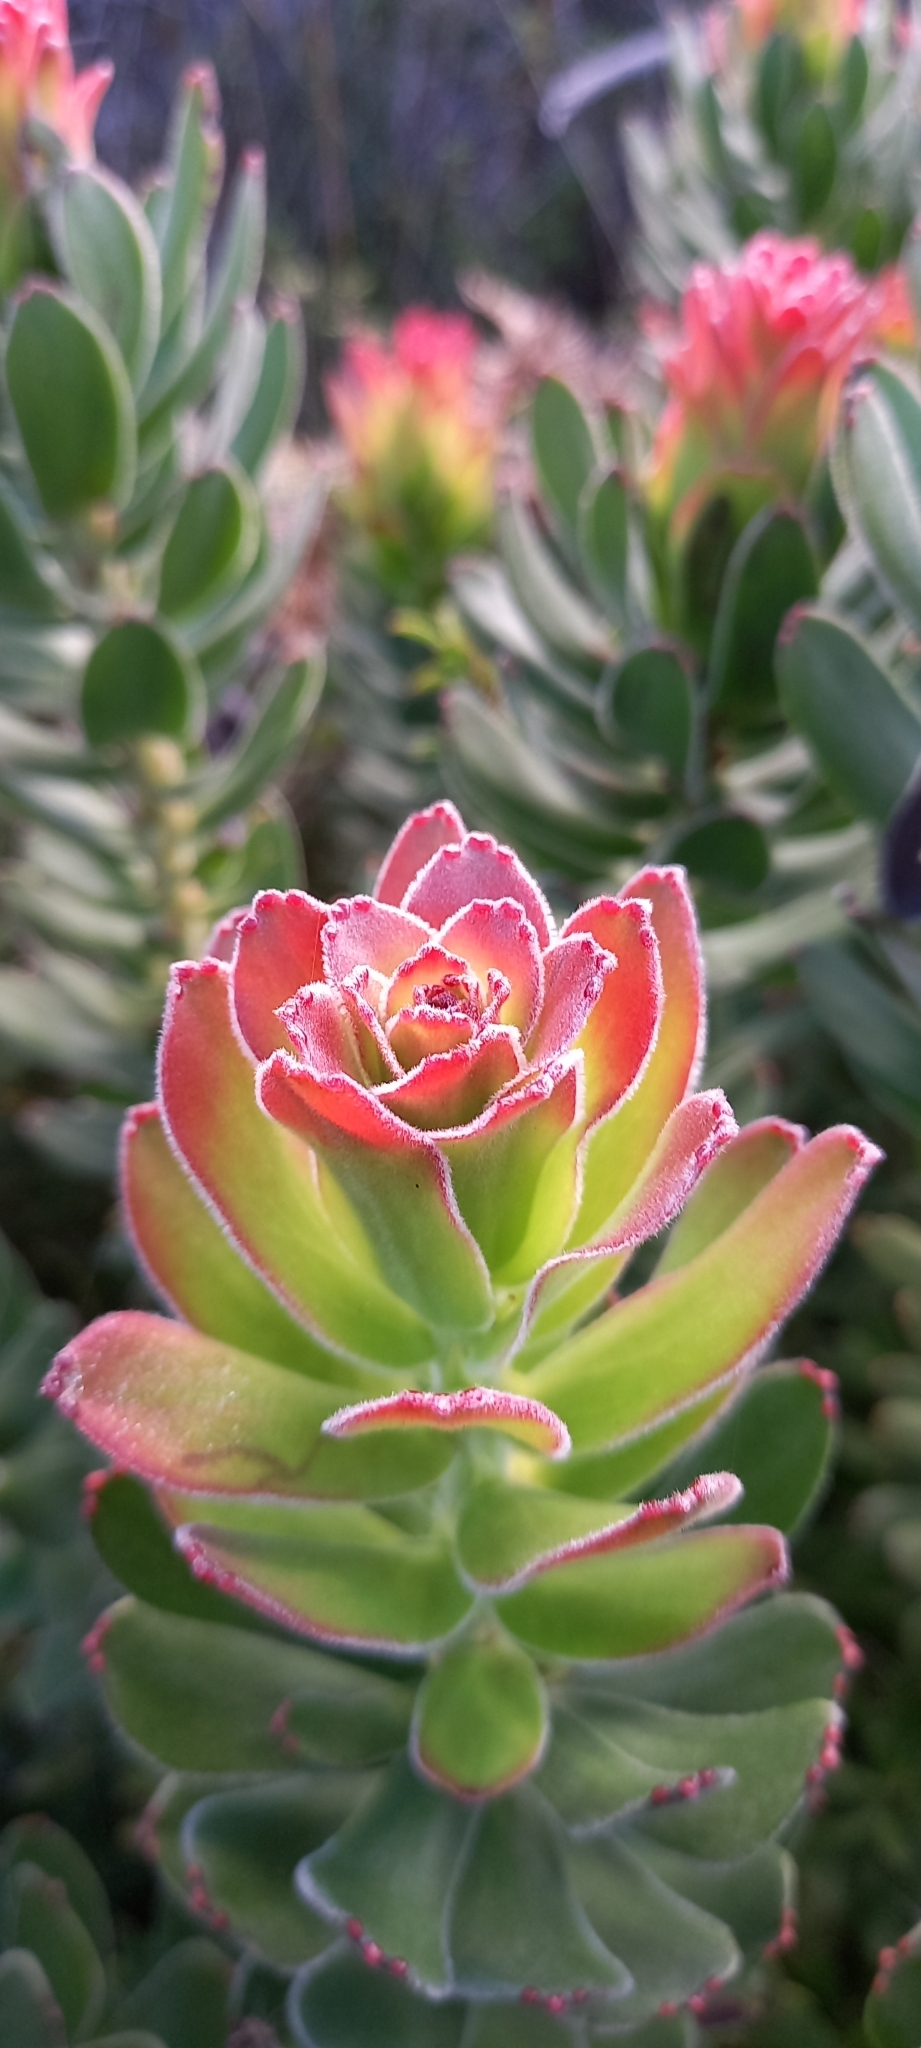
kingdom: Plantae
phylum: Tracheophyta
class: Magnoliopsida
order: Proteales
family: Proteaceae
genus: Mimetes
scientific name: Mimetes cucullatus
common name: Common pagoda
